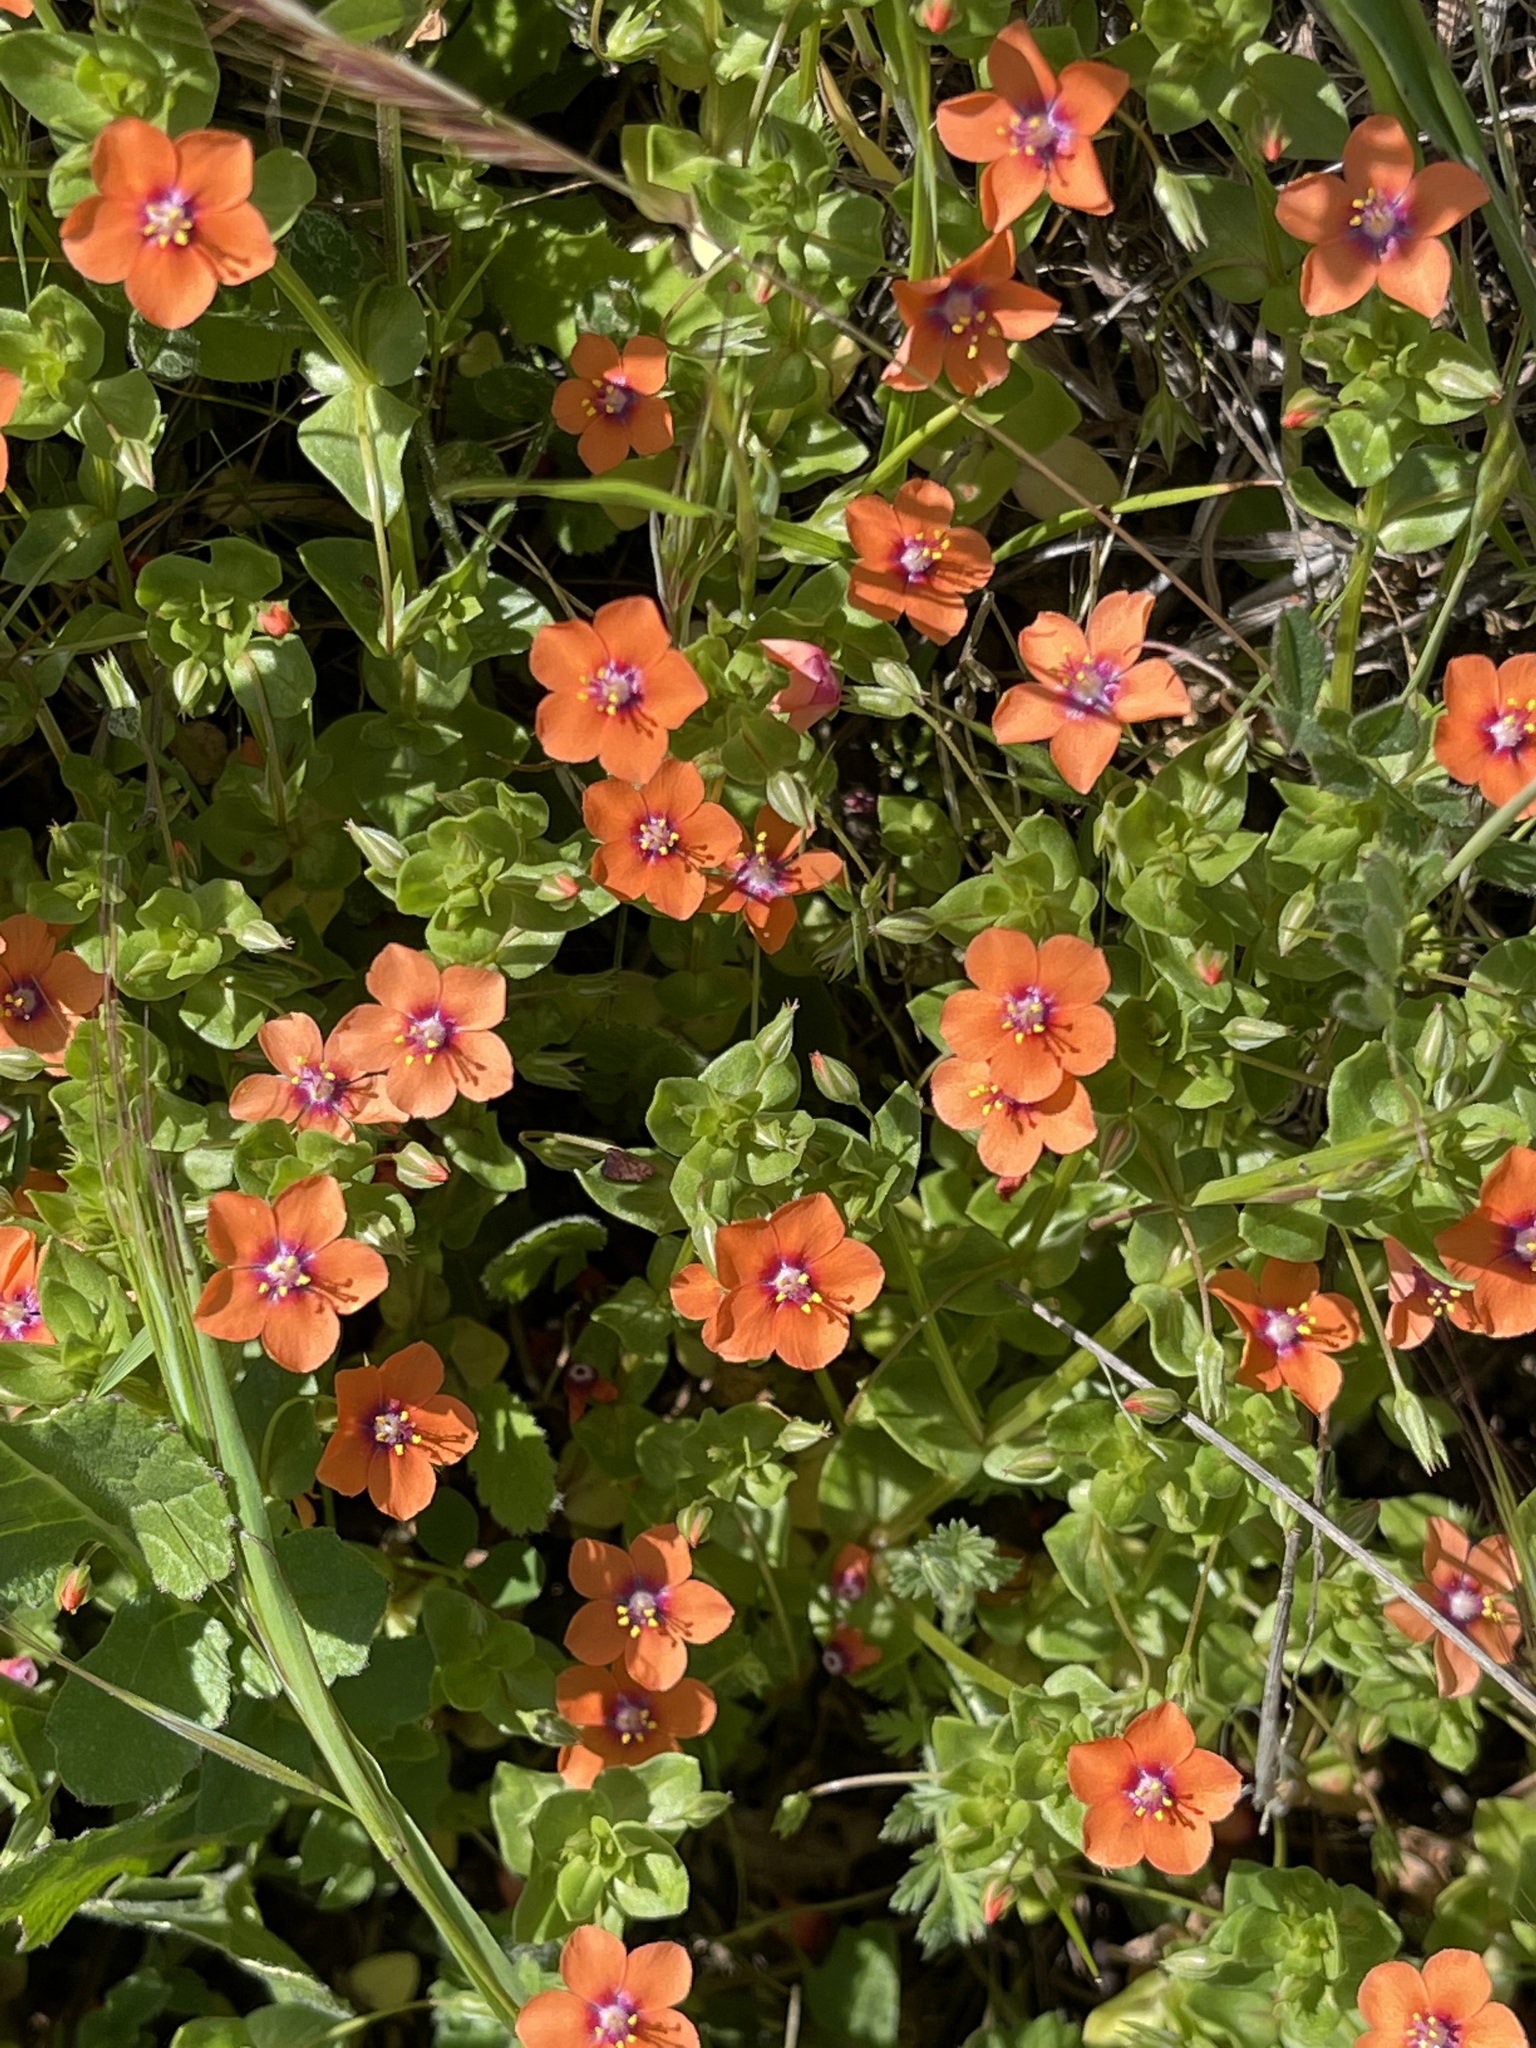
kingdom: Plantae
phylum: Tracheophyta
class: Magnoliopsida
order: Ericales
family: Primulaceae
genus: Lysimachia
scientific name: Lysimachia arvensis
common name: Scarlet pimpernel
